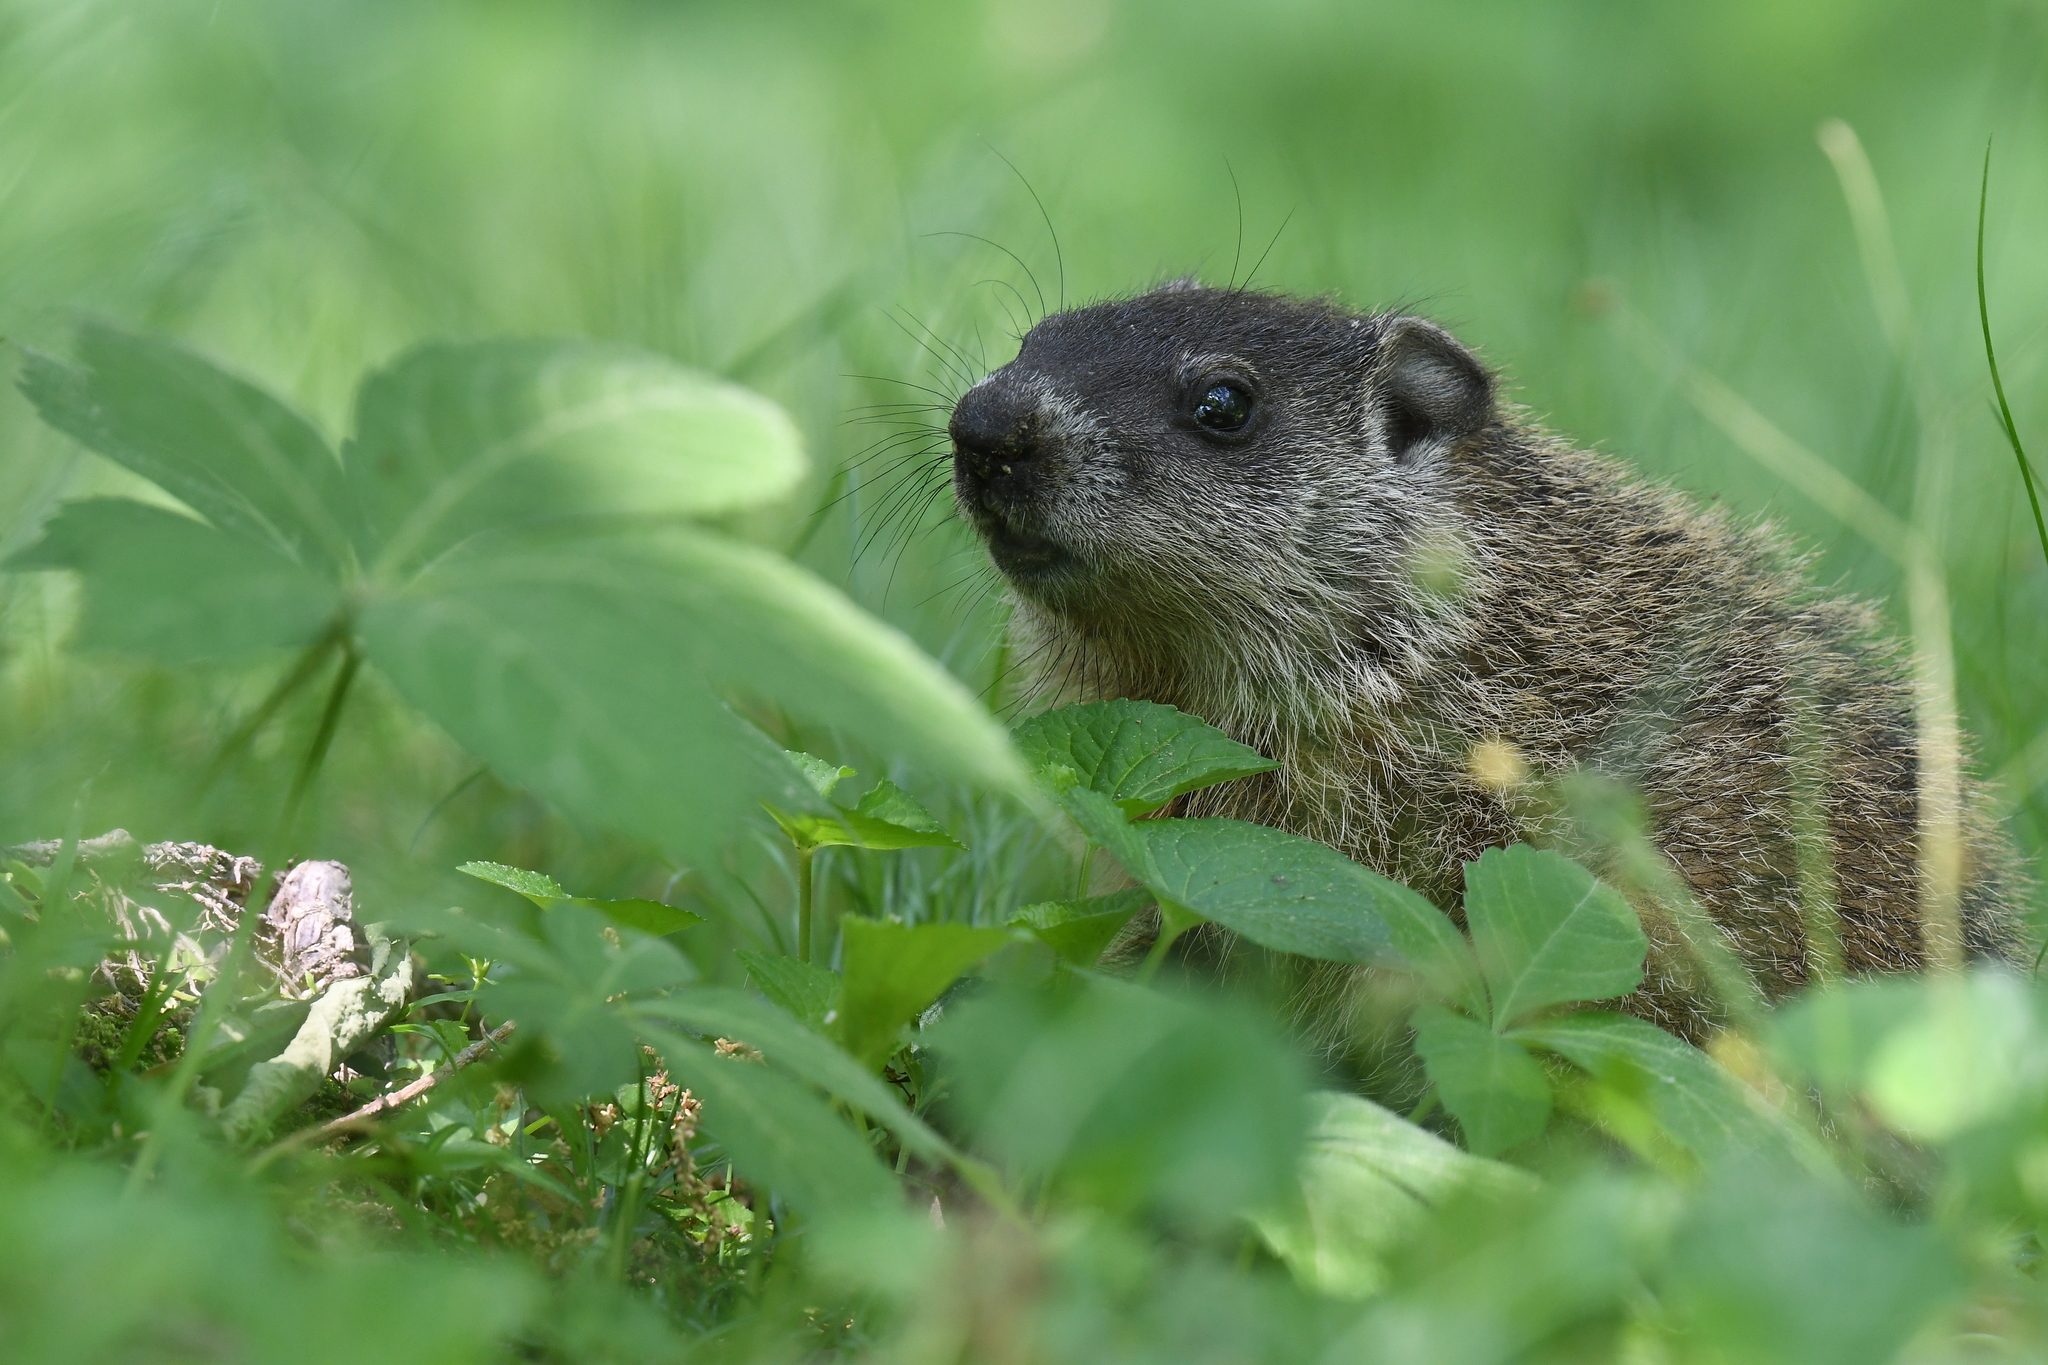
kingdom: Animalia
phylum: Chordata
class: Mammalia
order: Rodentia
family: Sciuridae
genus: Marmota
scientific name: Marmota monax
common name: Groundhog
